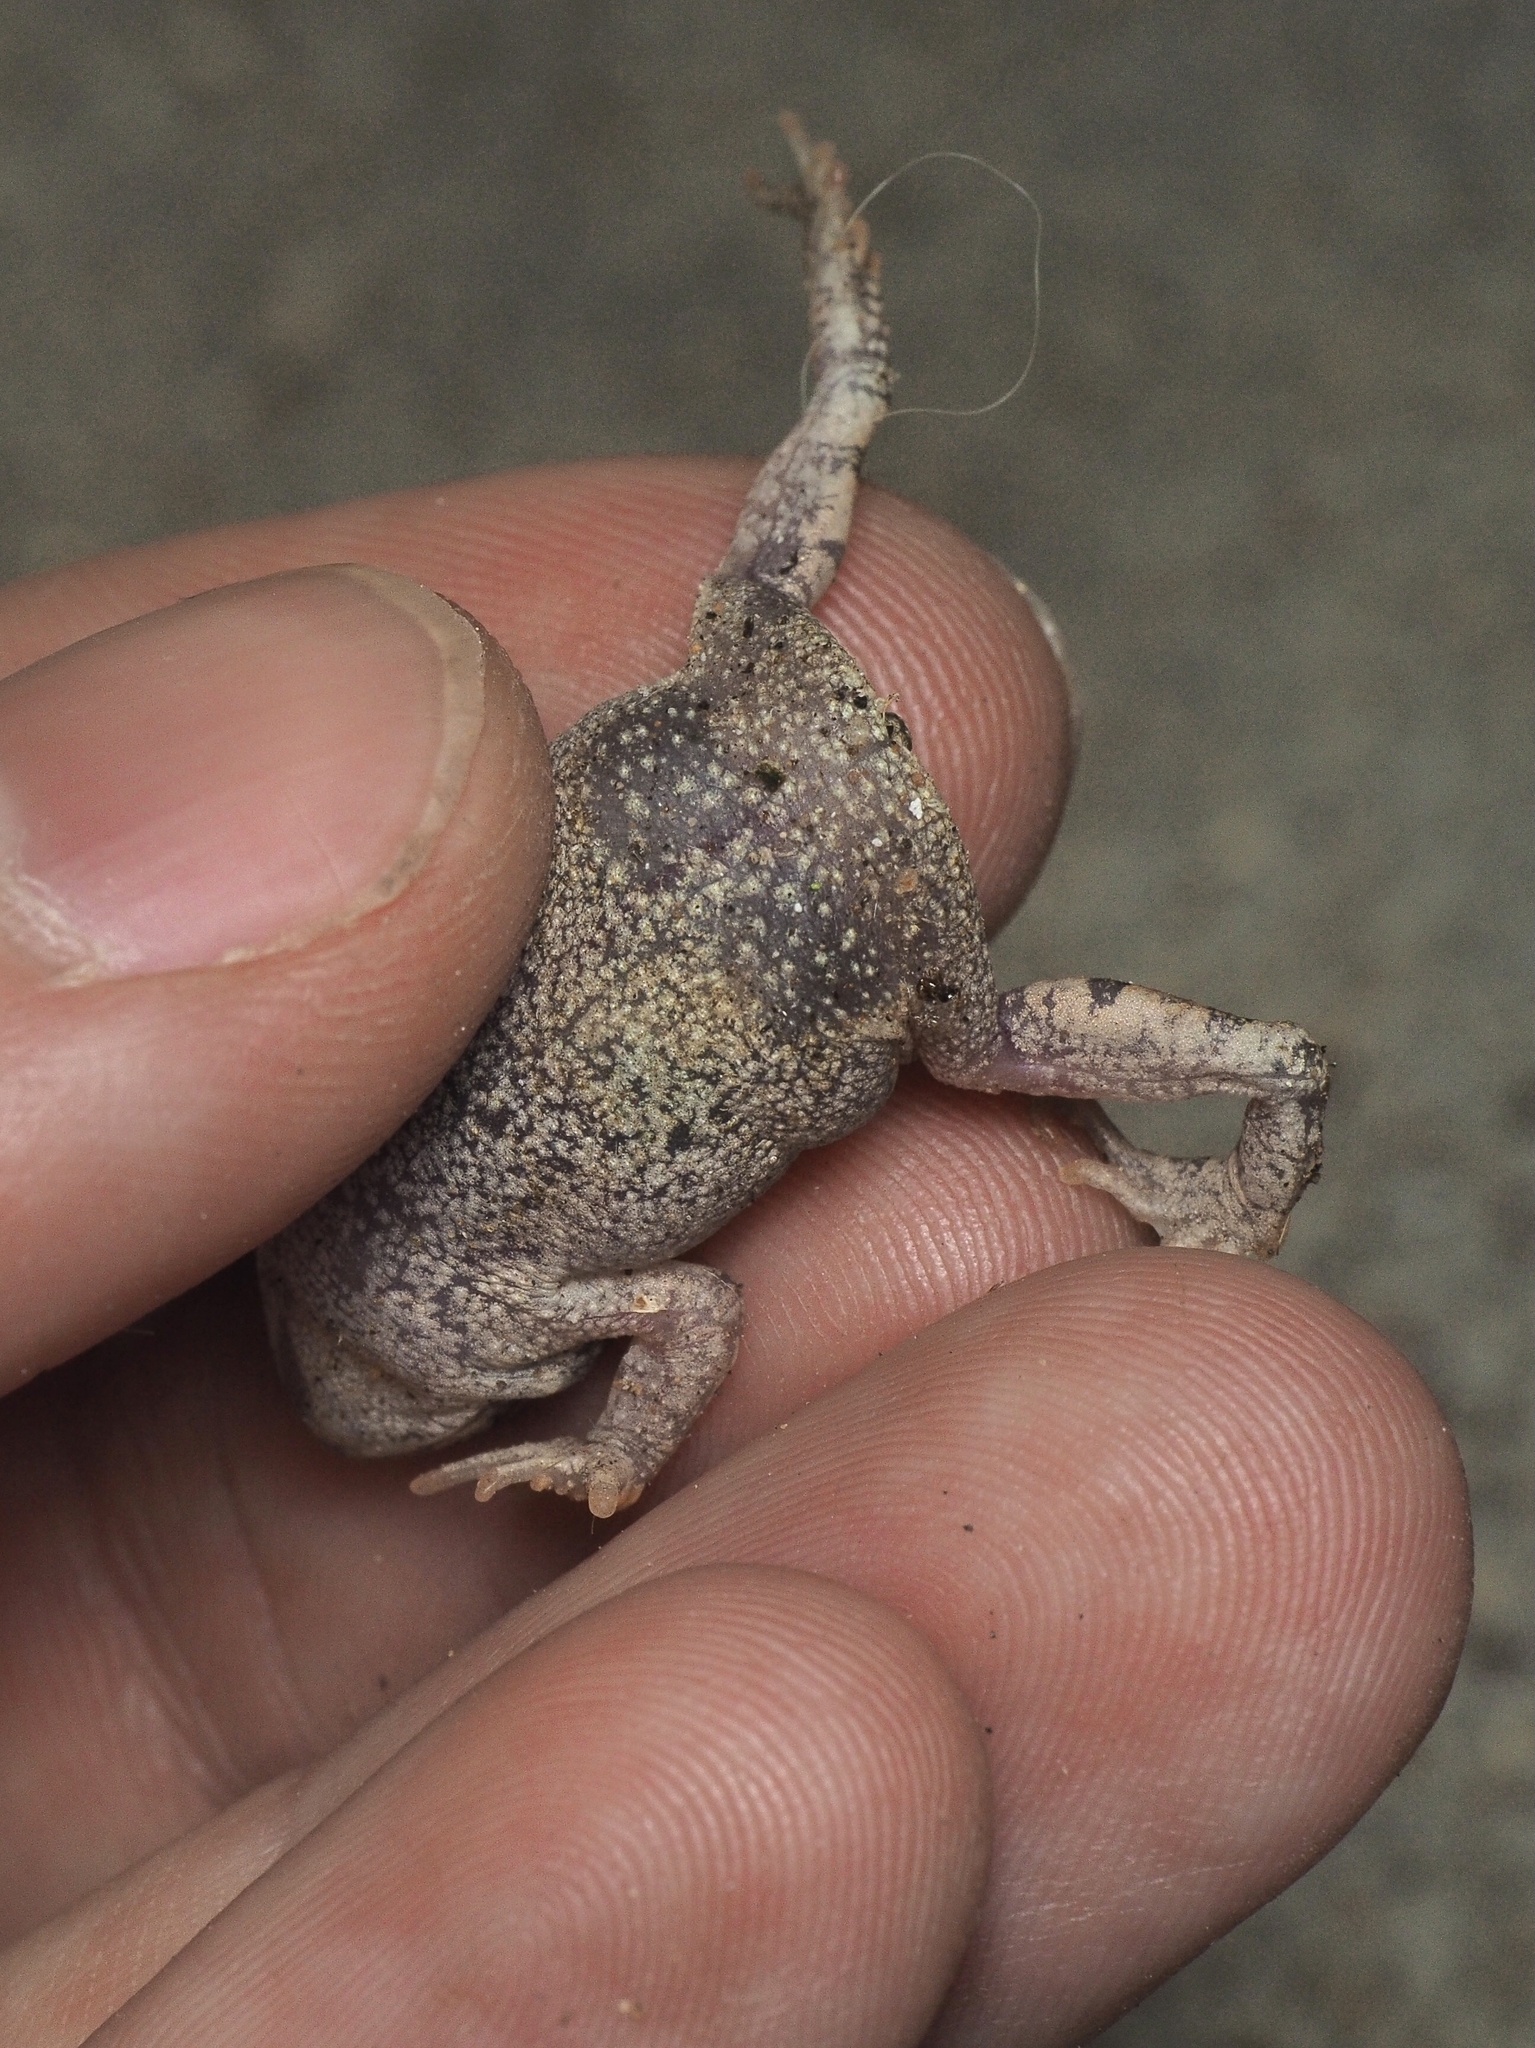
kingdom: Animalia
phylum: Chordata
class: Amphibia
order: Anura
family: Bufonidae
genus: Schismaderma
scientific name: Schismaderma carens
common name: African split-skin toad
